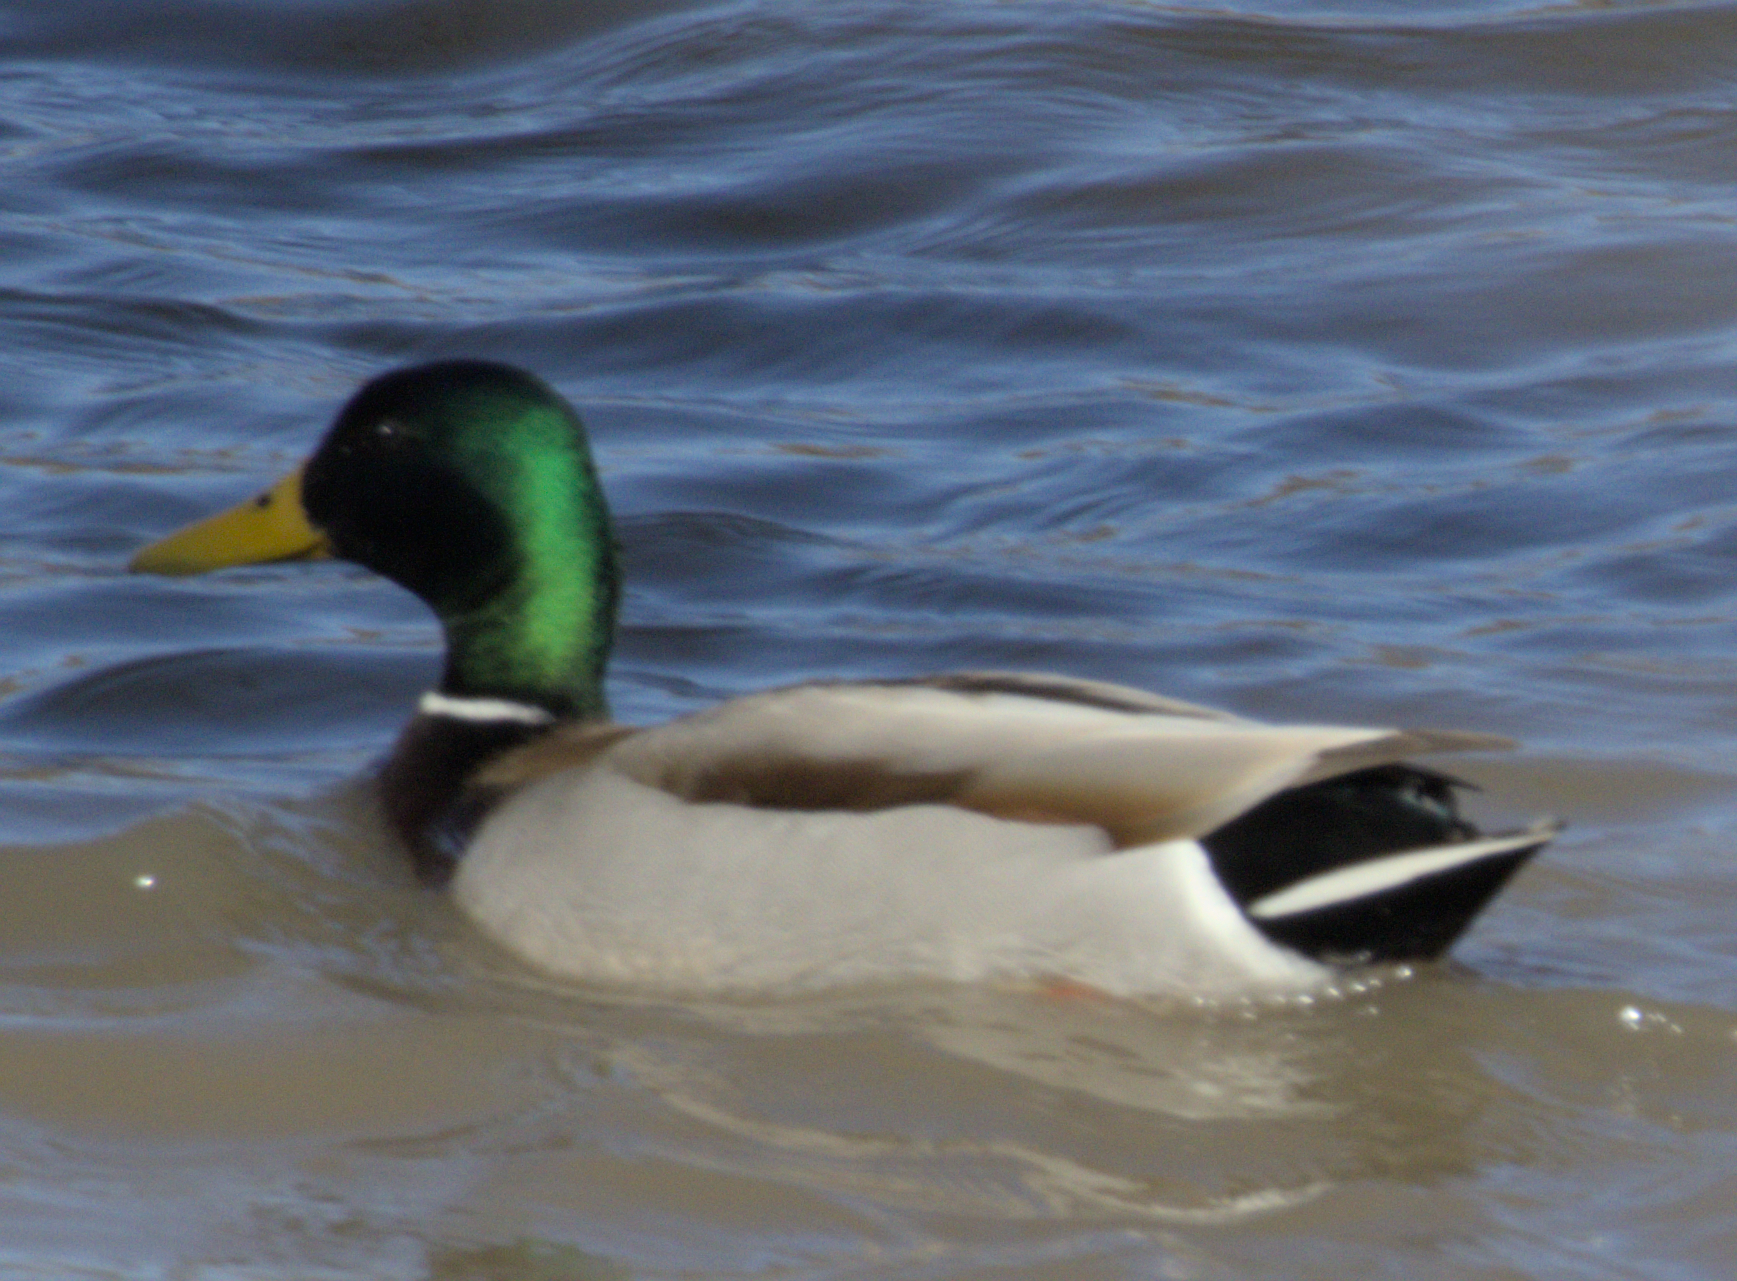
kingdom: Animalia
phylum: Chordata
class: Aves
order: Anseriformes
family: Anatidae
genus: Anas
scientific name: Anas platyrhynchos
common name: Mallard
